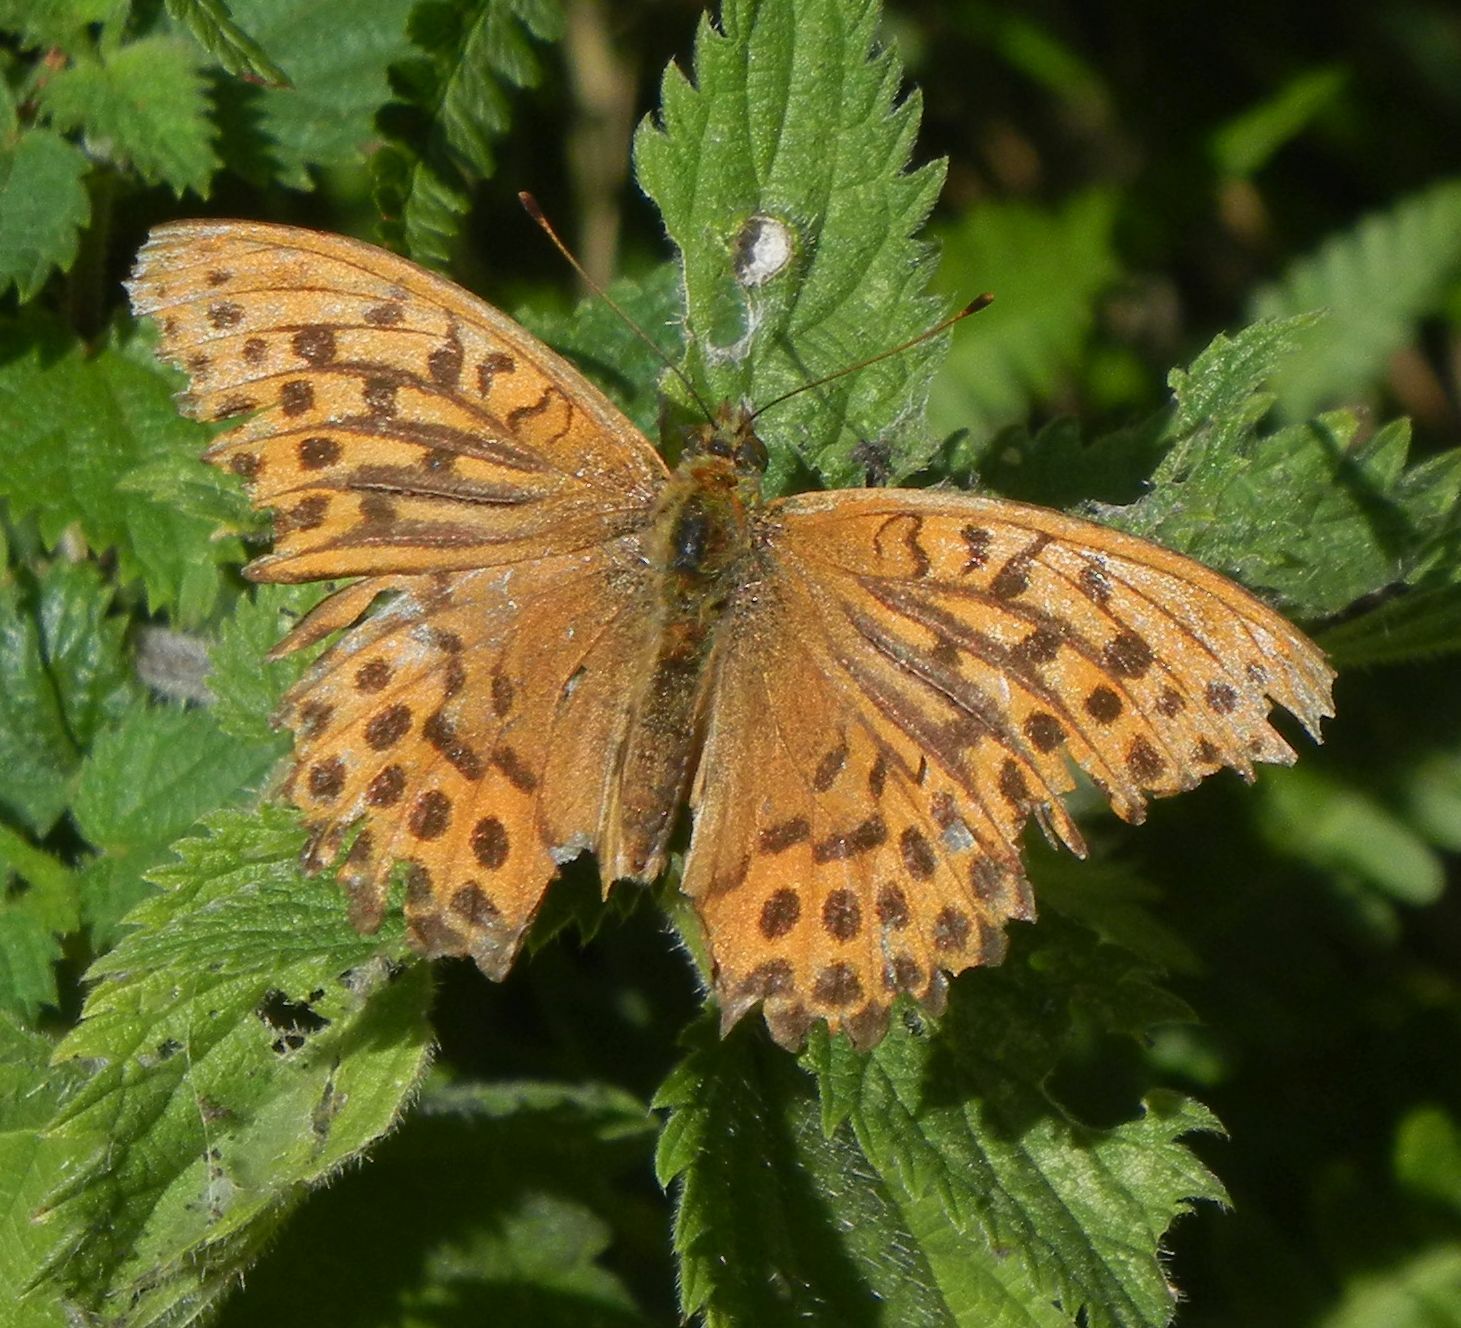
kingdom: Animalia
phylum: Arthropoda
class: Insecta
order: Lepidoptera
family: Nymphalidae
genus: Argynnis
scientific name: Argynnis paphia
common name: Silver-washed fritillary
